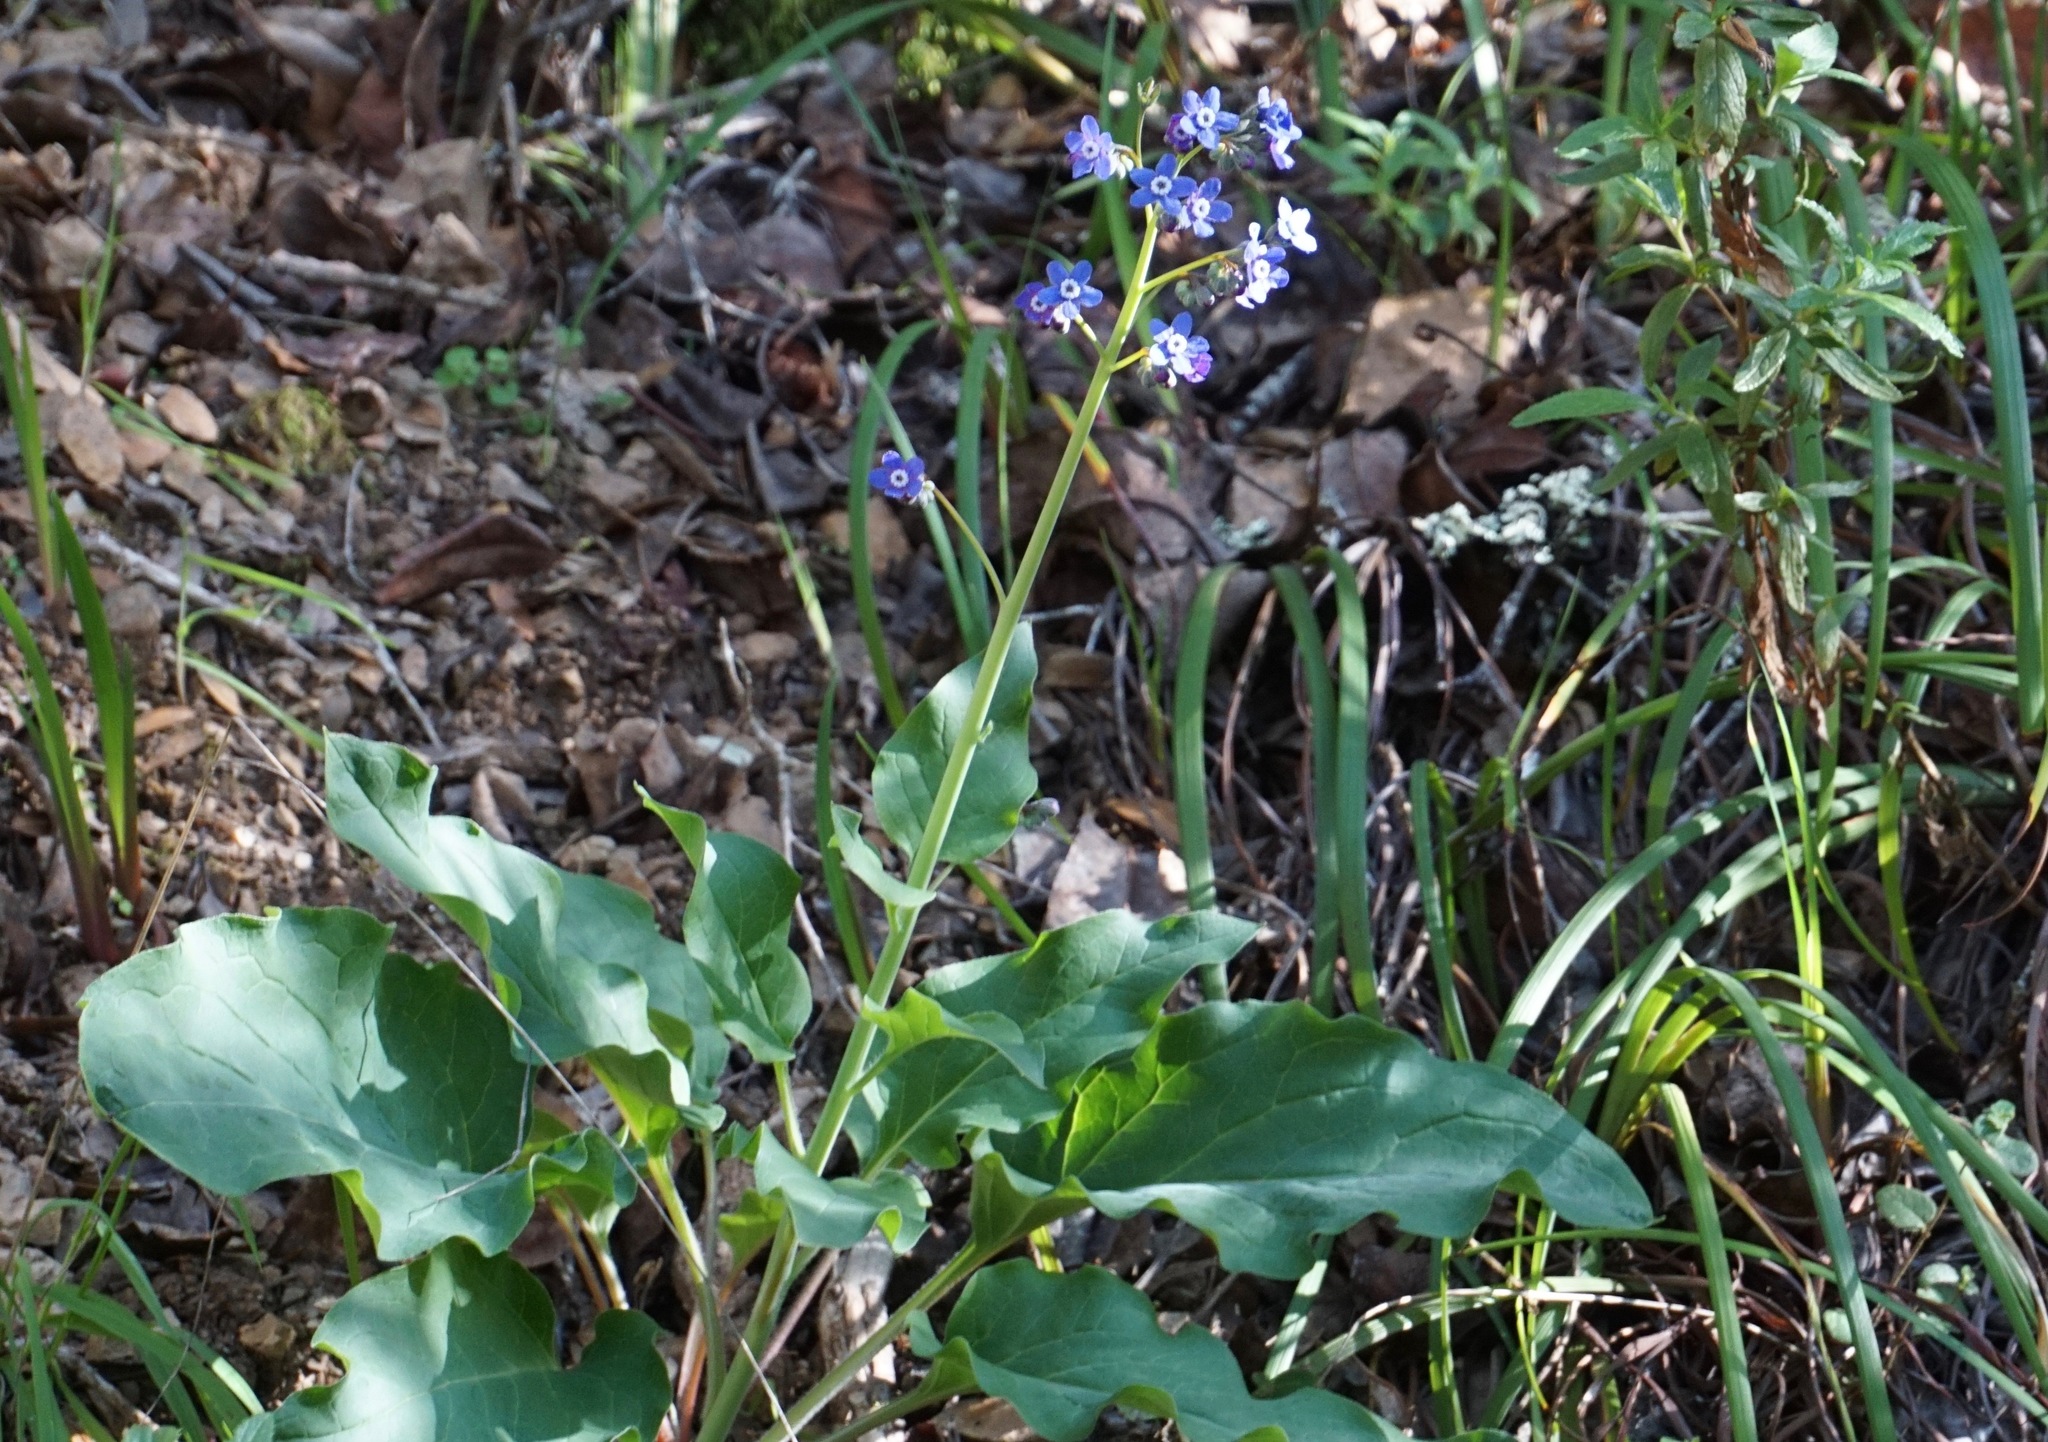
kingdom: Plantae
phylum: Tracheophyta
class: Magnoliopsida
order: Boraginales
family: Boraginaceae
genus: Adelinia
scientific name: Adelinia grande
